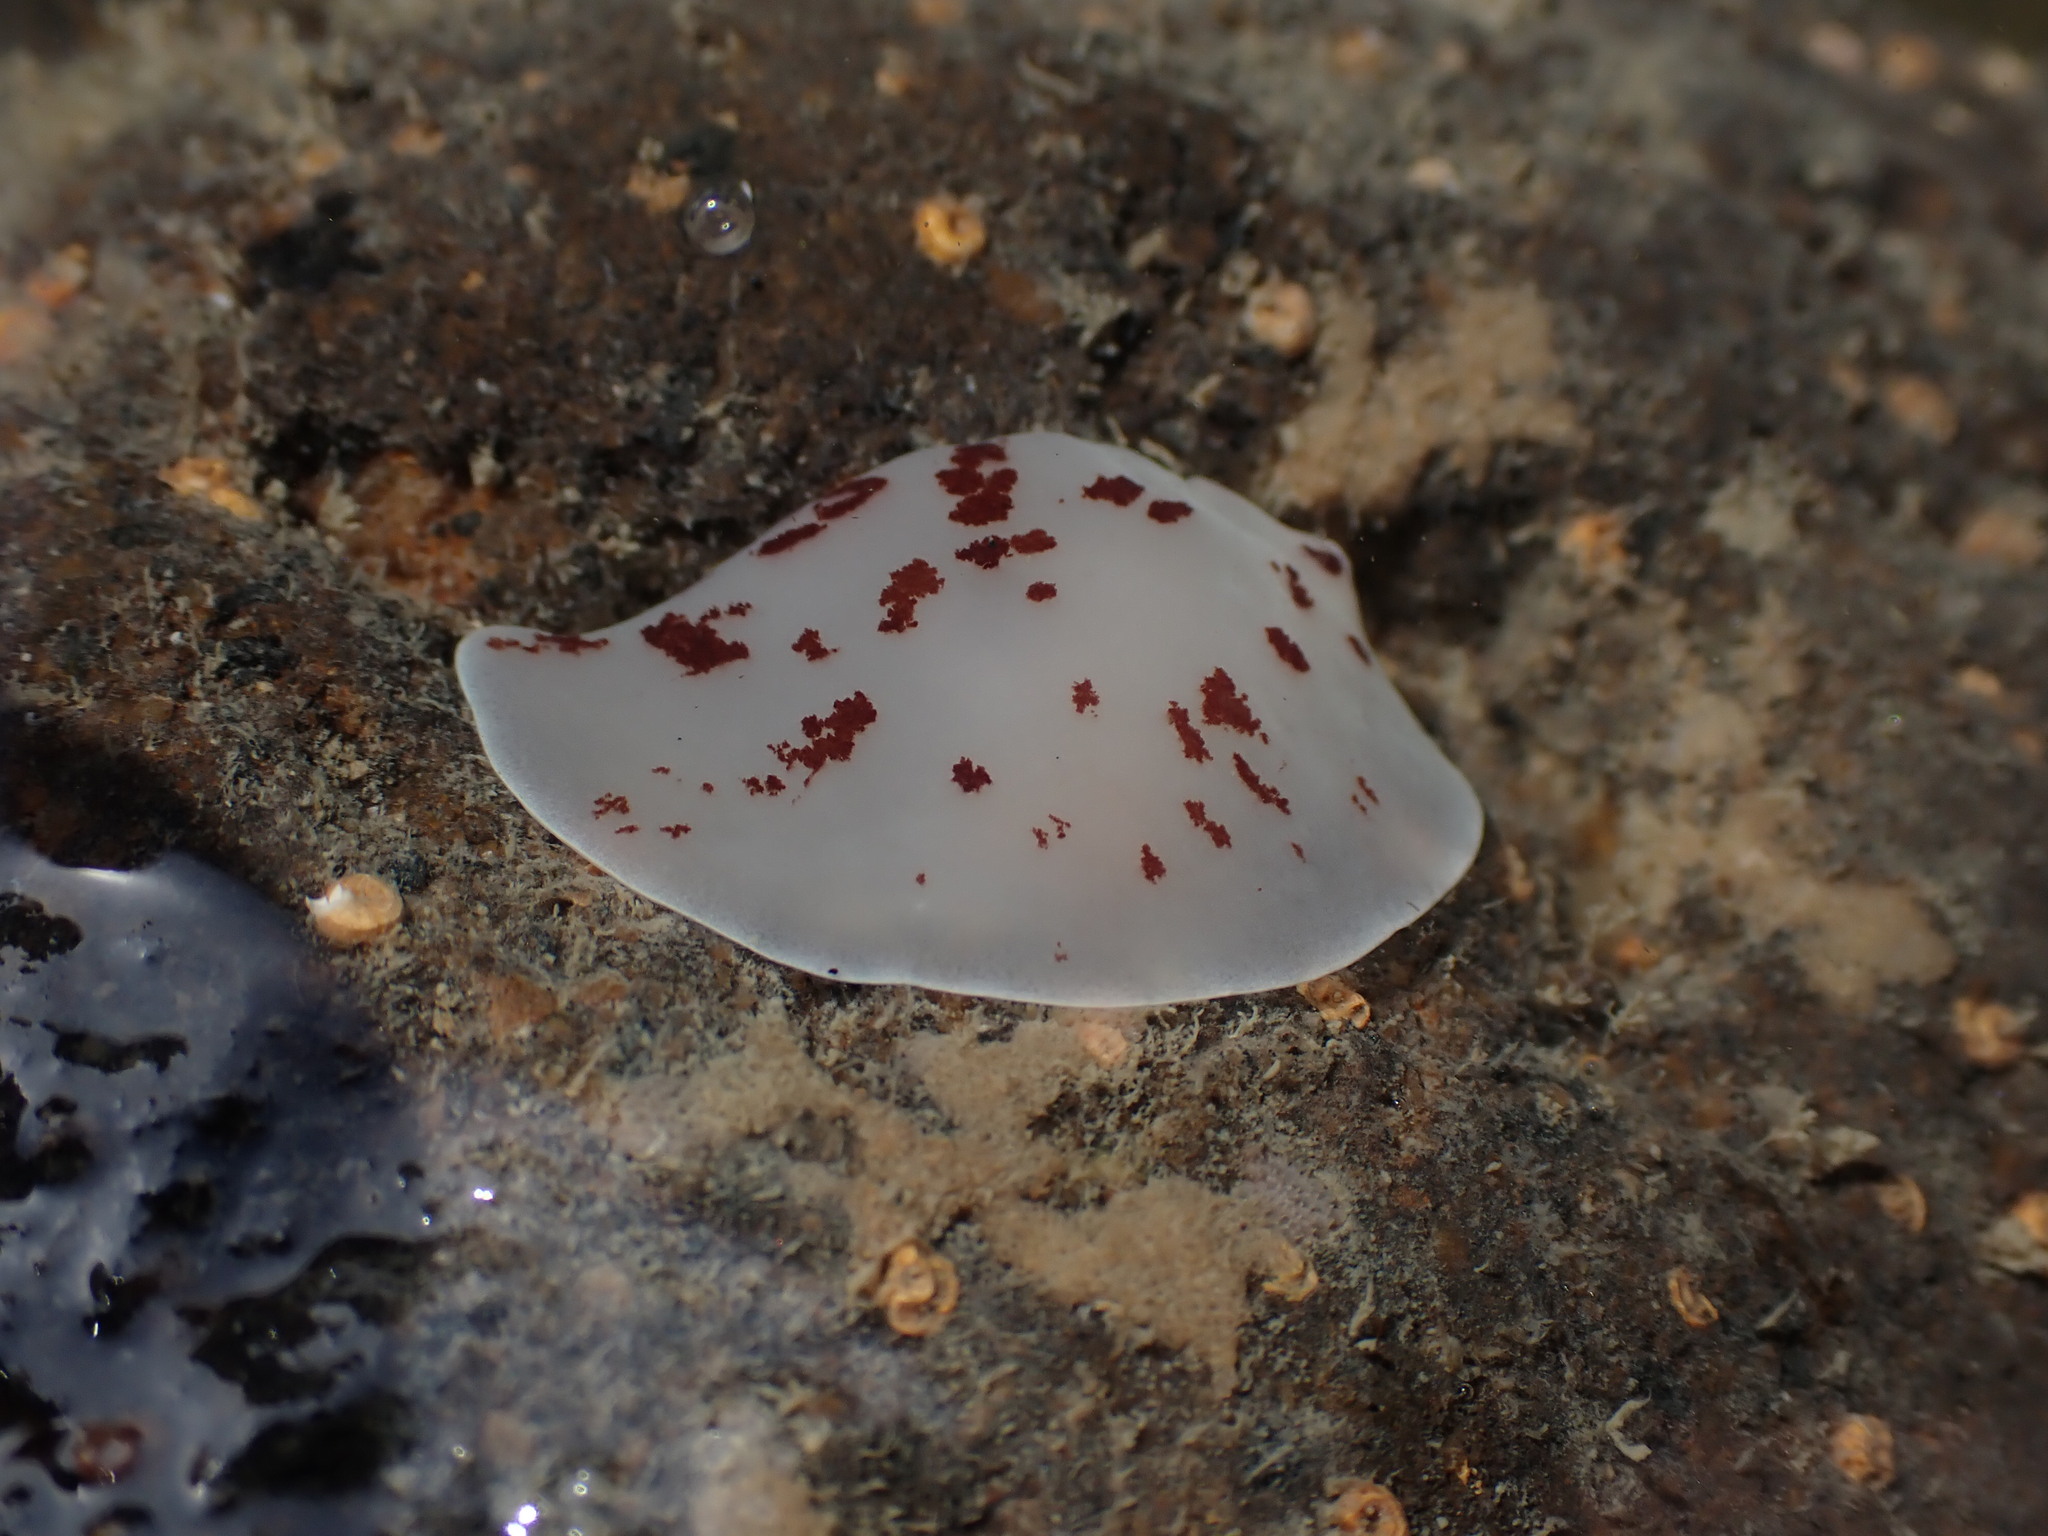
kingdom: Animalia
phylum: Mollusca
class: Gastropoda
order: Pleurobranchida
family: Pleurobranchidae
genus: Berthella
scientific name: Berthella ornata
